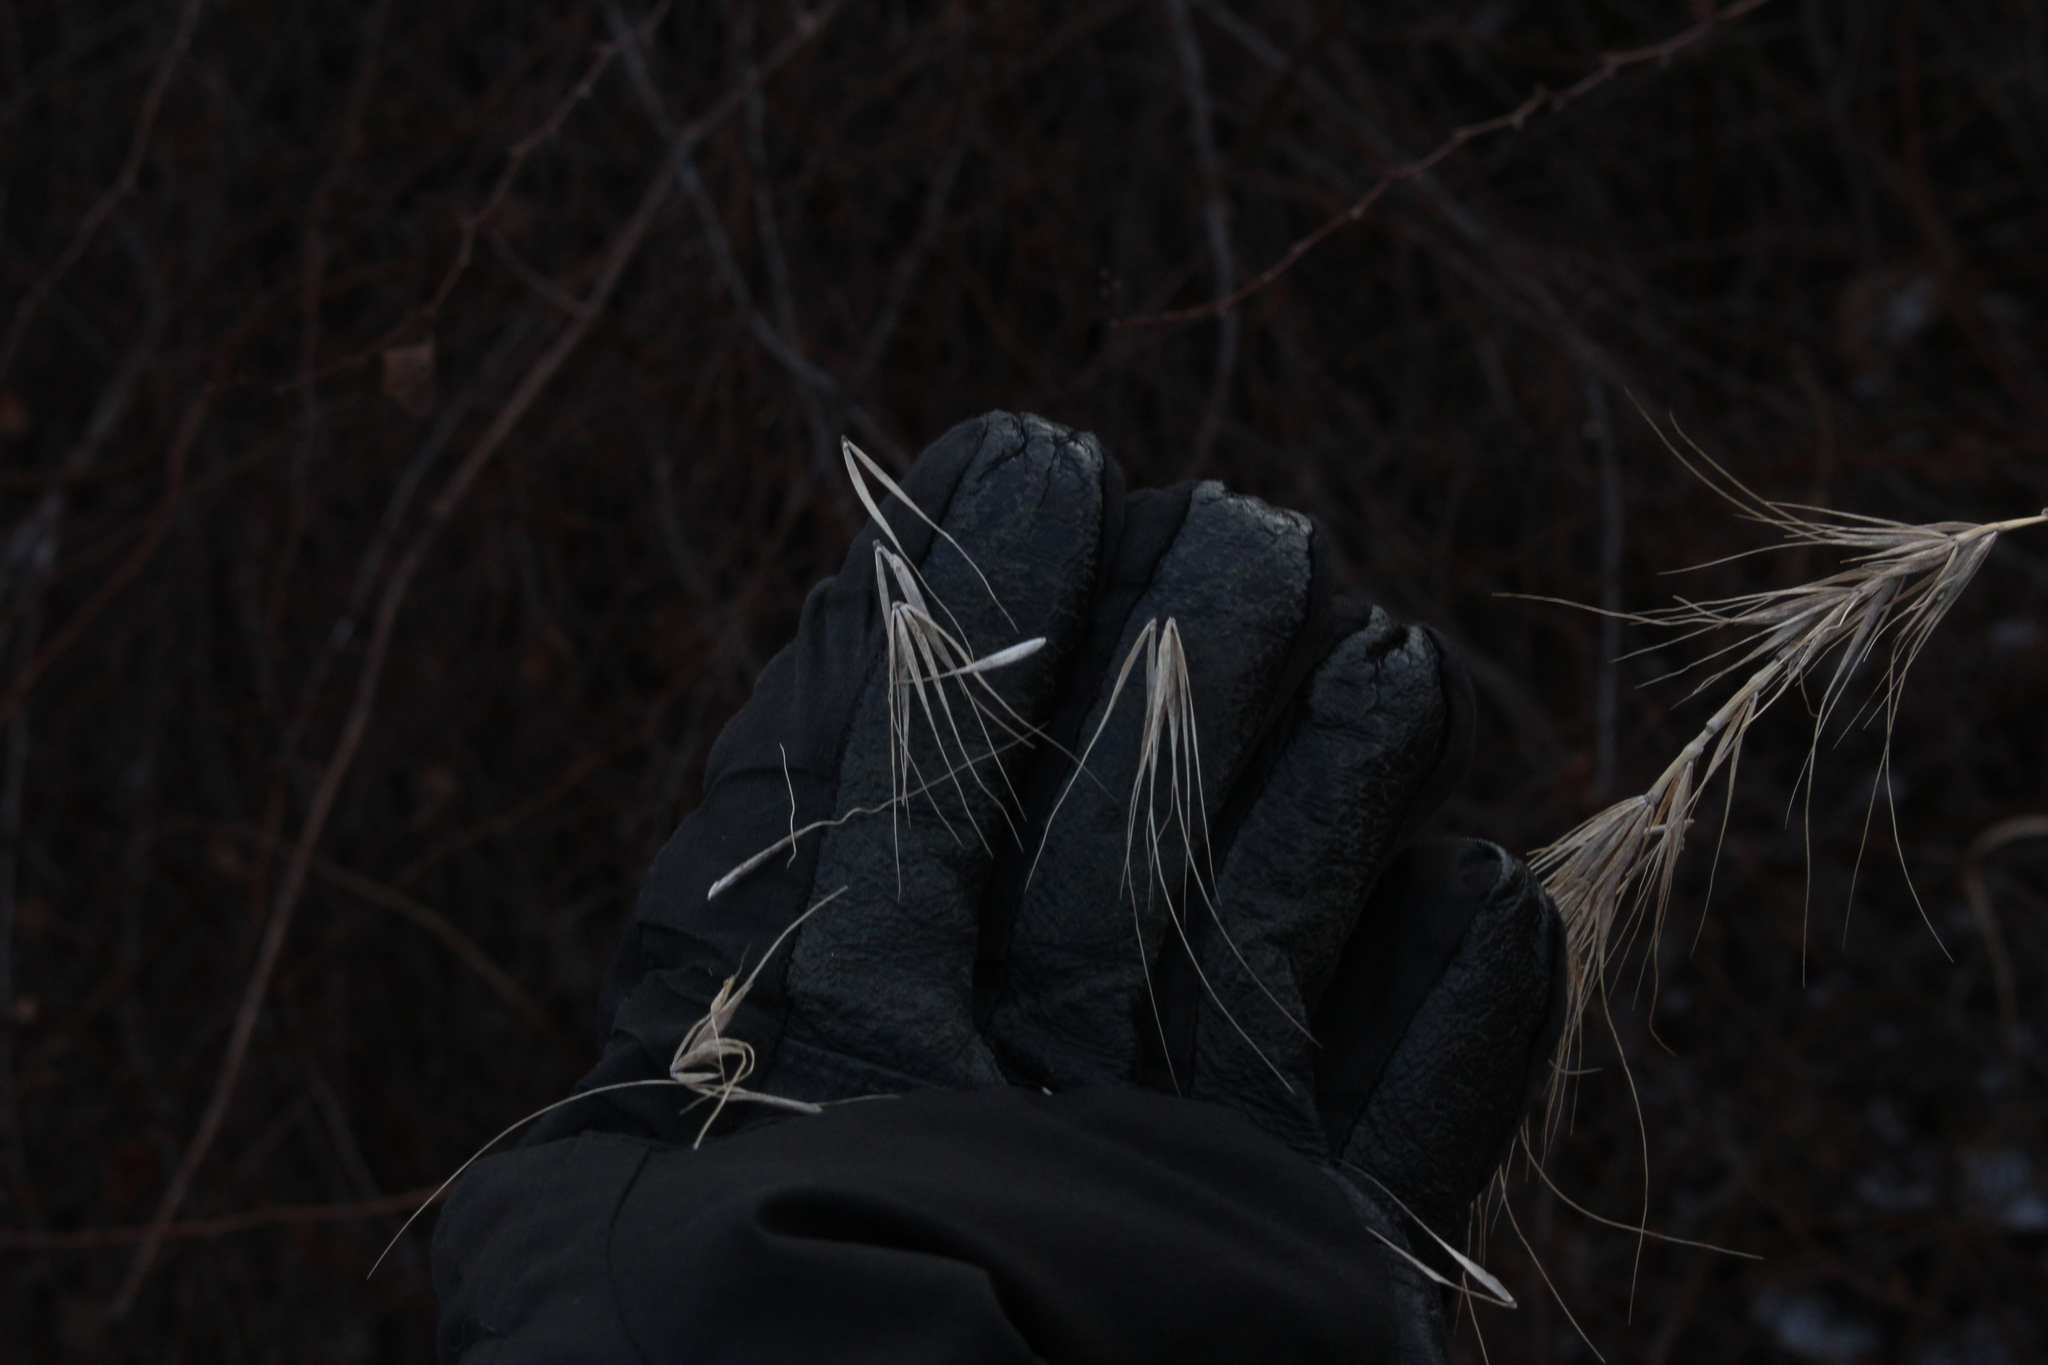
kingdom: Plantae
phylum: Tracheophyta
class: Liliopsida
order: Poales
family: Poaceae
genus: Elymus
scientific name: Elymus canadensis
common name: Canada wild rye
